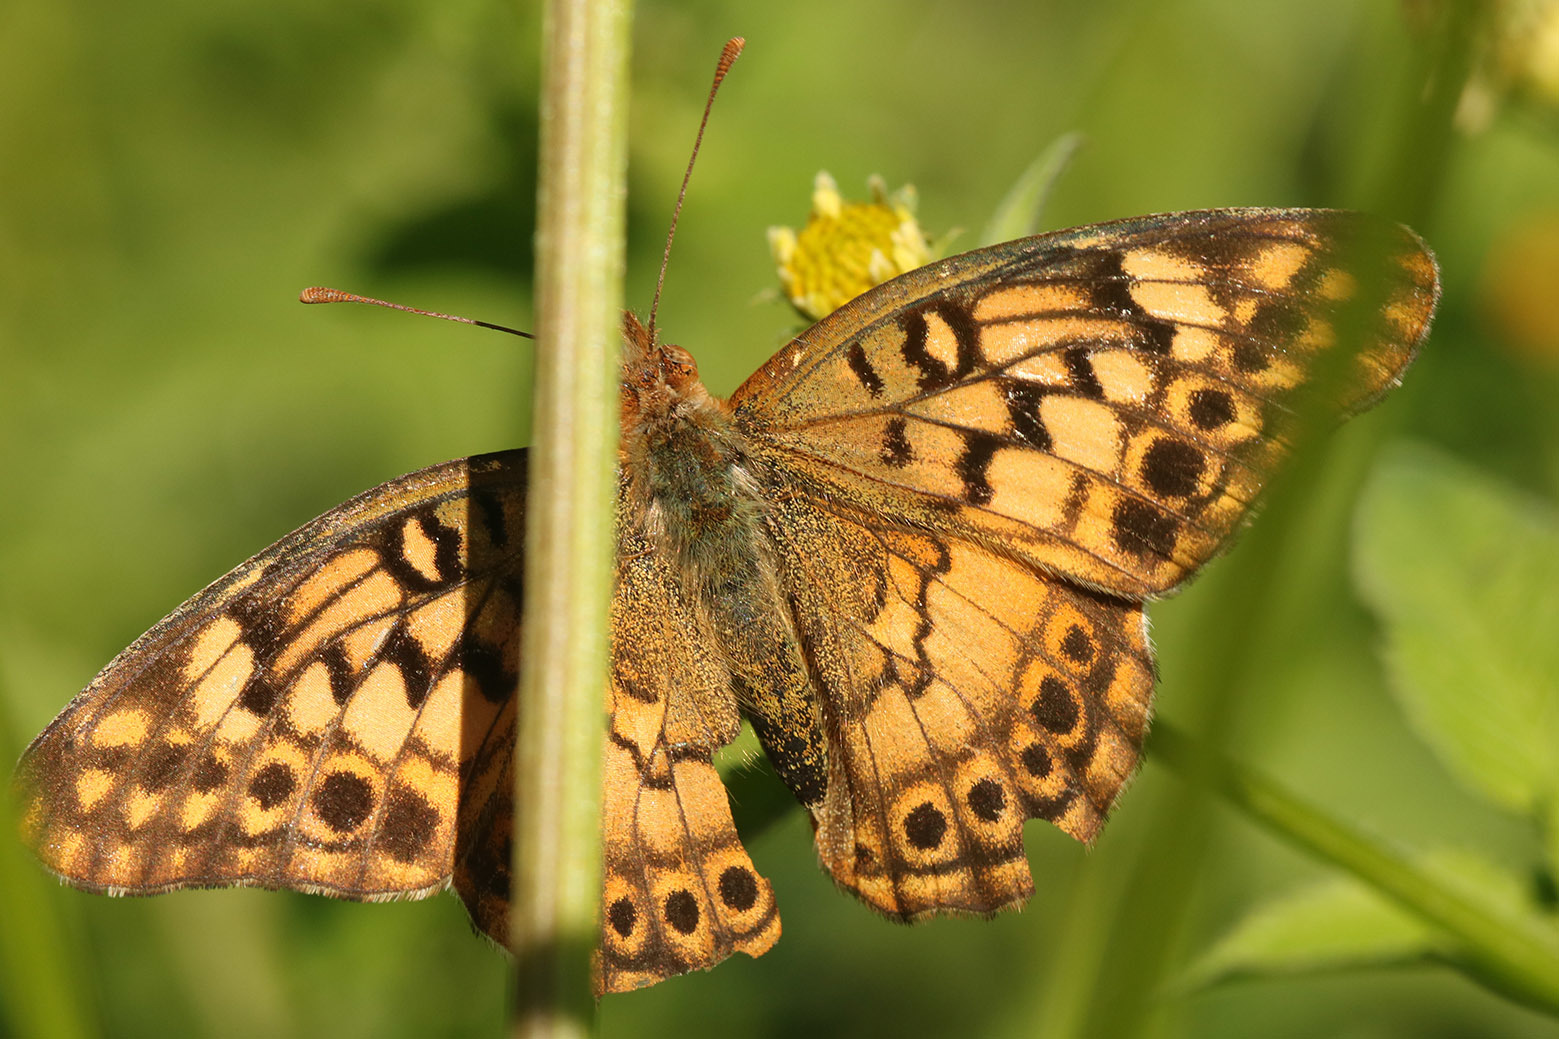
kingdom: Animalia
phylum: Arthropoda
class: Insecta
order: Lepidoptera
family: Nymphalidae
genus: Euptoieta
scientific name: Euptoieta hortensia
